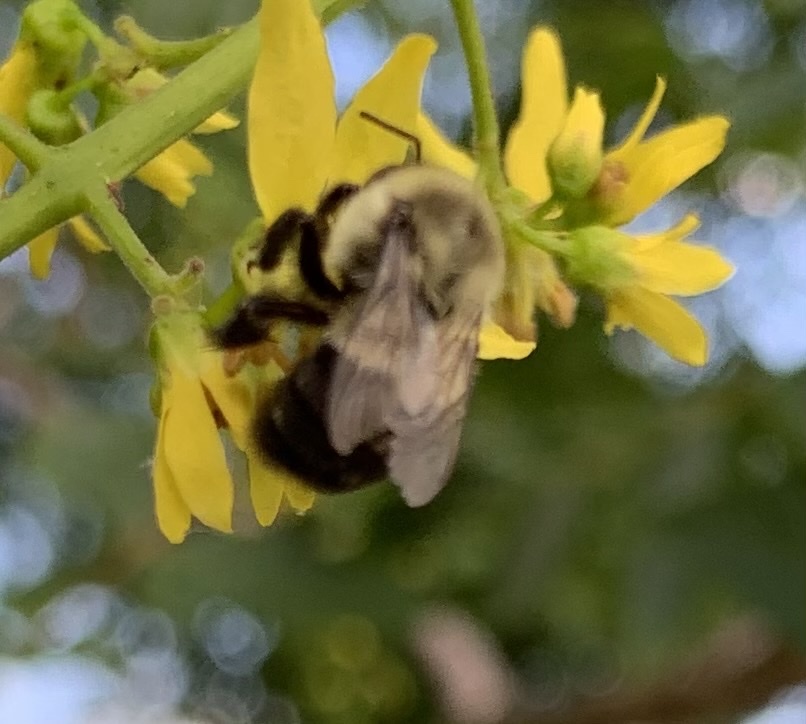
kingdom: Animalia
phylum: Arthropoda
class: Insecta
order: Hymenoptera
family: Apidae
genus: Bombus
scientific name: Bombus impatiens
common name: Common eastern bumble bee
